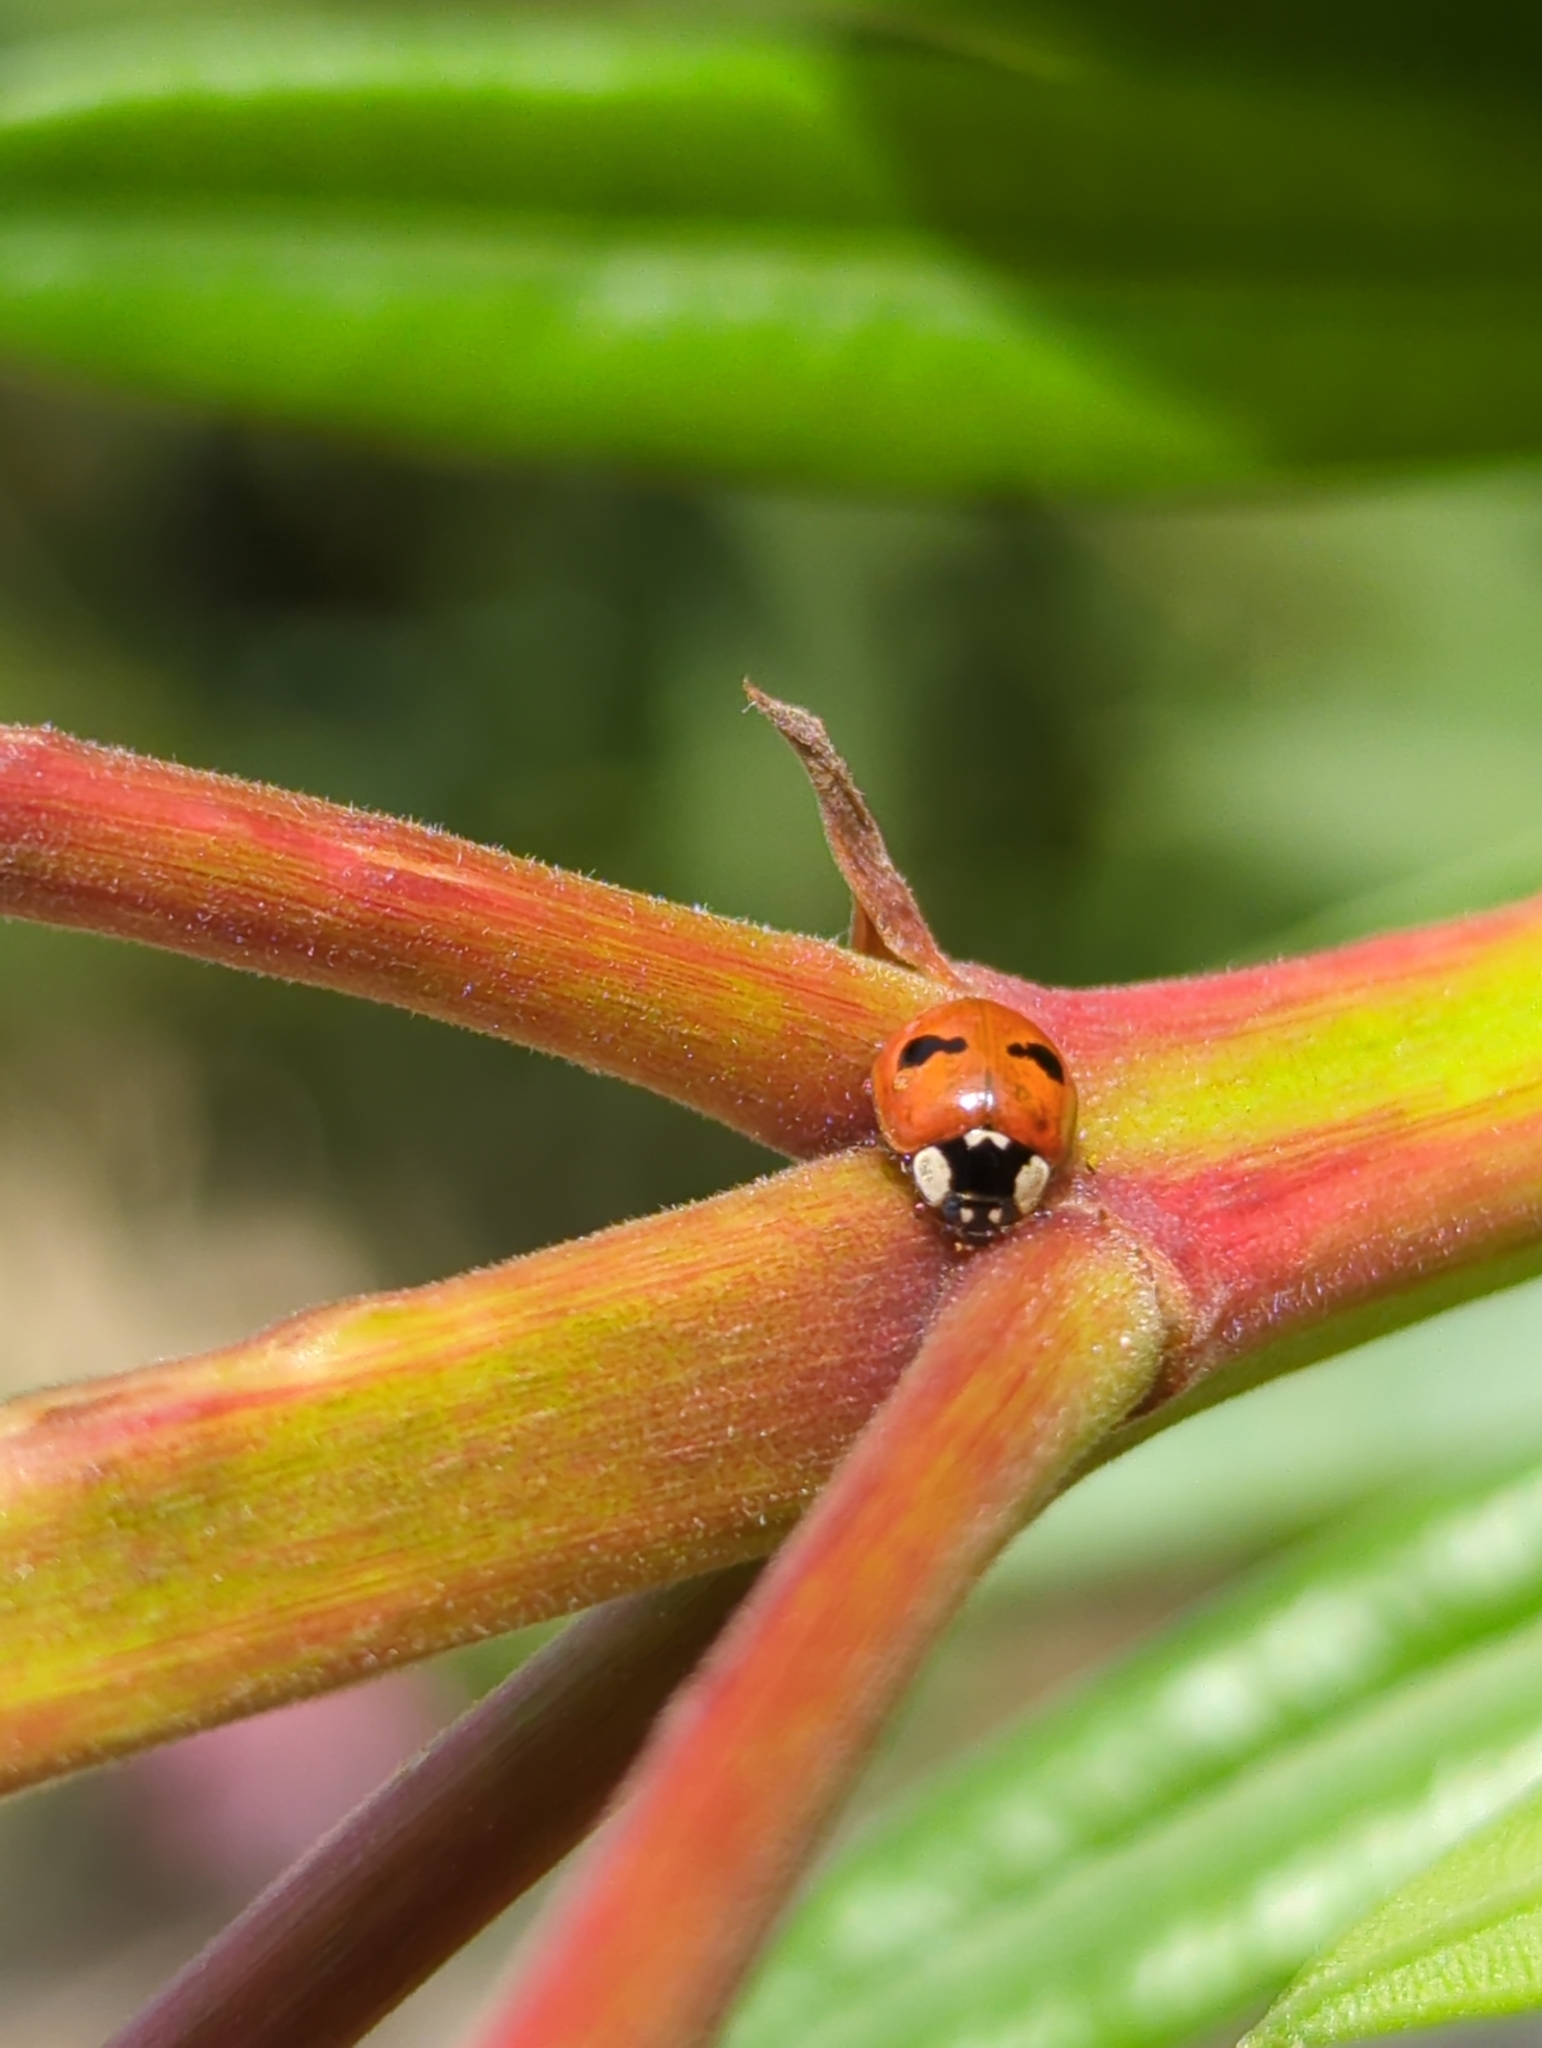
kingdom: Animalia
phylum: Arthropoda
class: Insecta
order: Coleoptera
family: Coccinellidae
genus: Adalia
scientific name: Adalia bipunctata
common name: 2-spot ladybird
